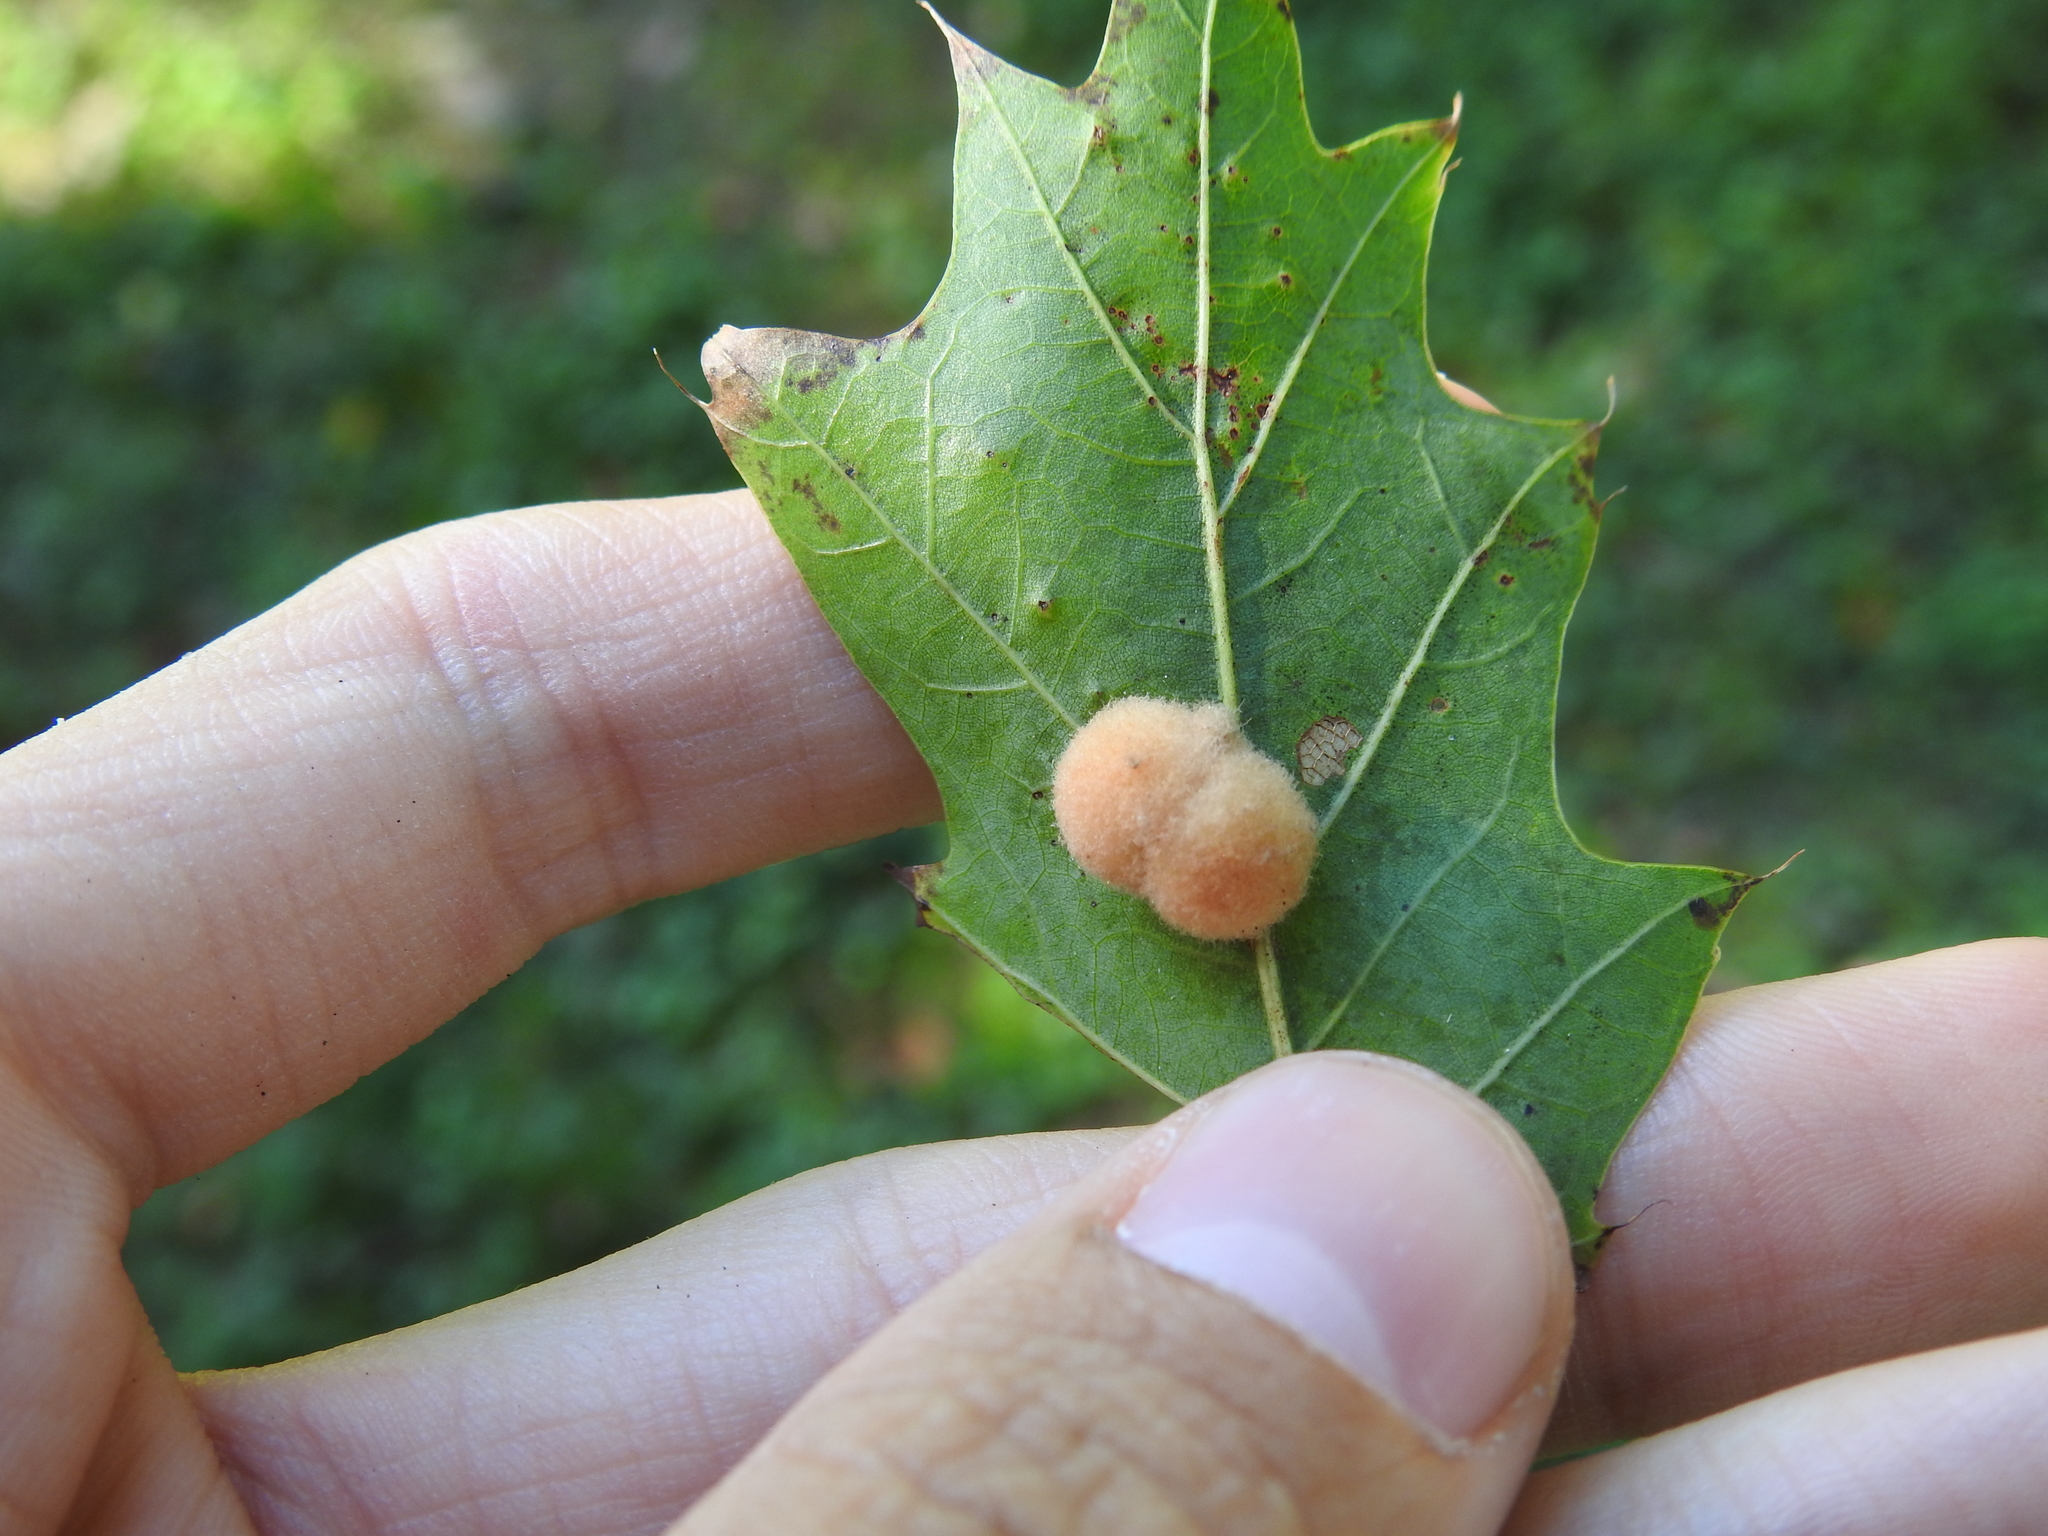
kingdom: Animalia
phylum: Arthropoda
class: Insecta
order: Hymenoptera
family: Cynipidae
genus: Callirhytis
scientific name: Callirhytis
